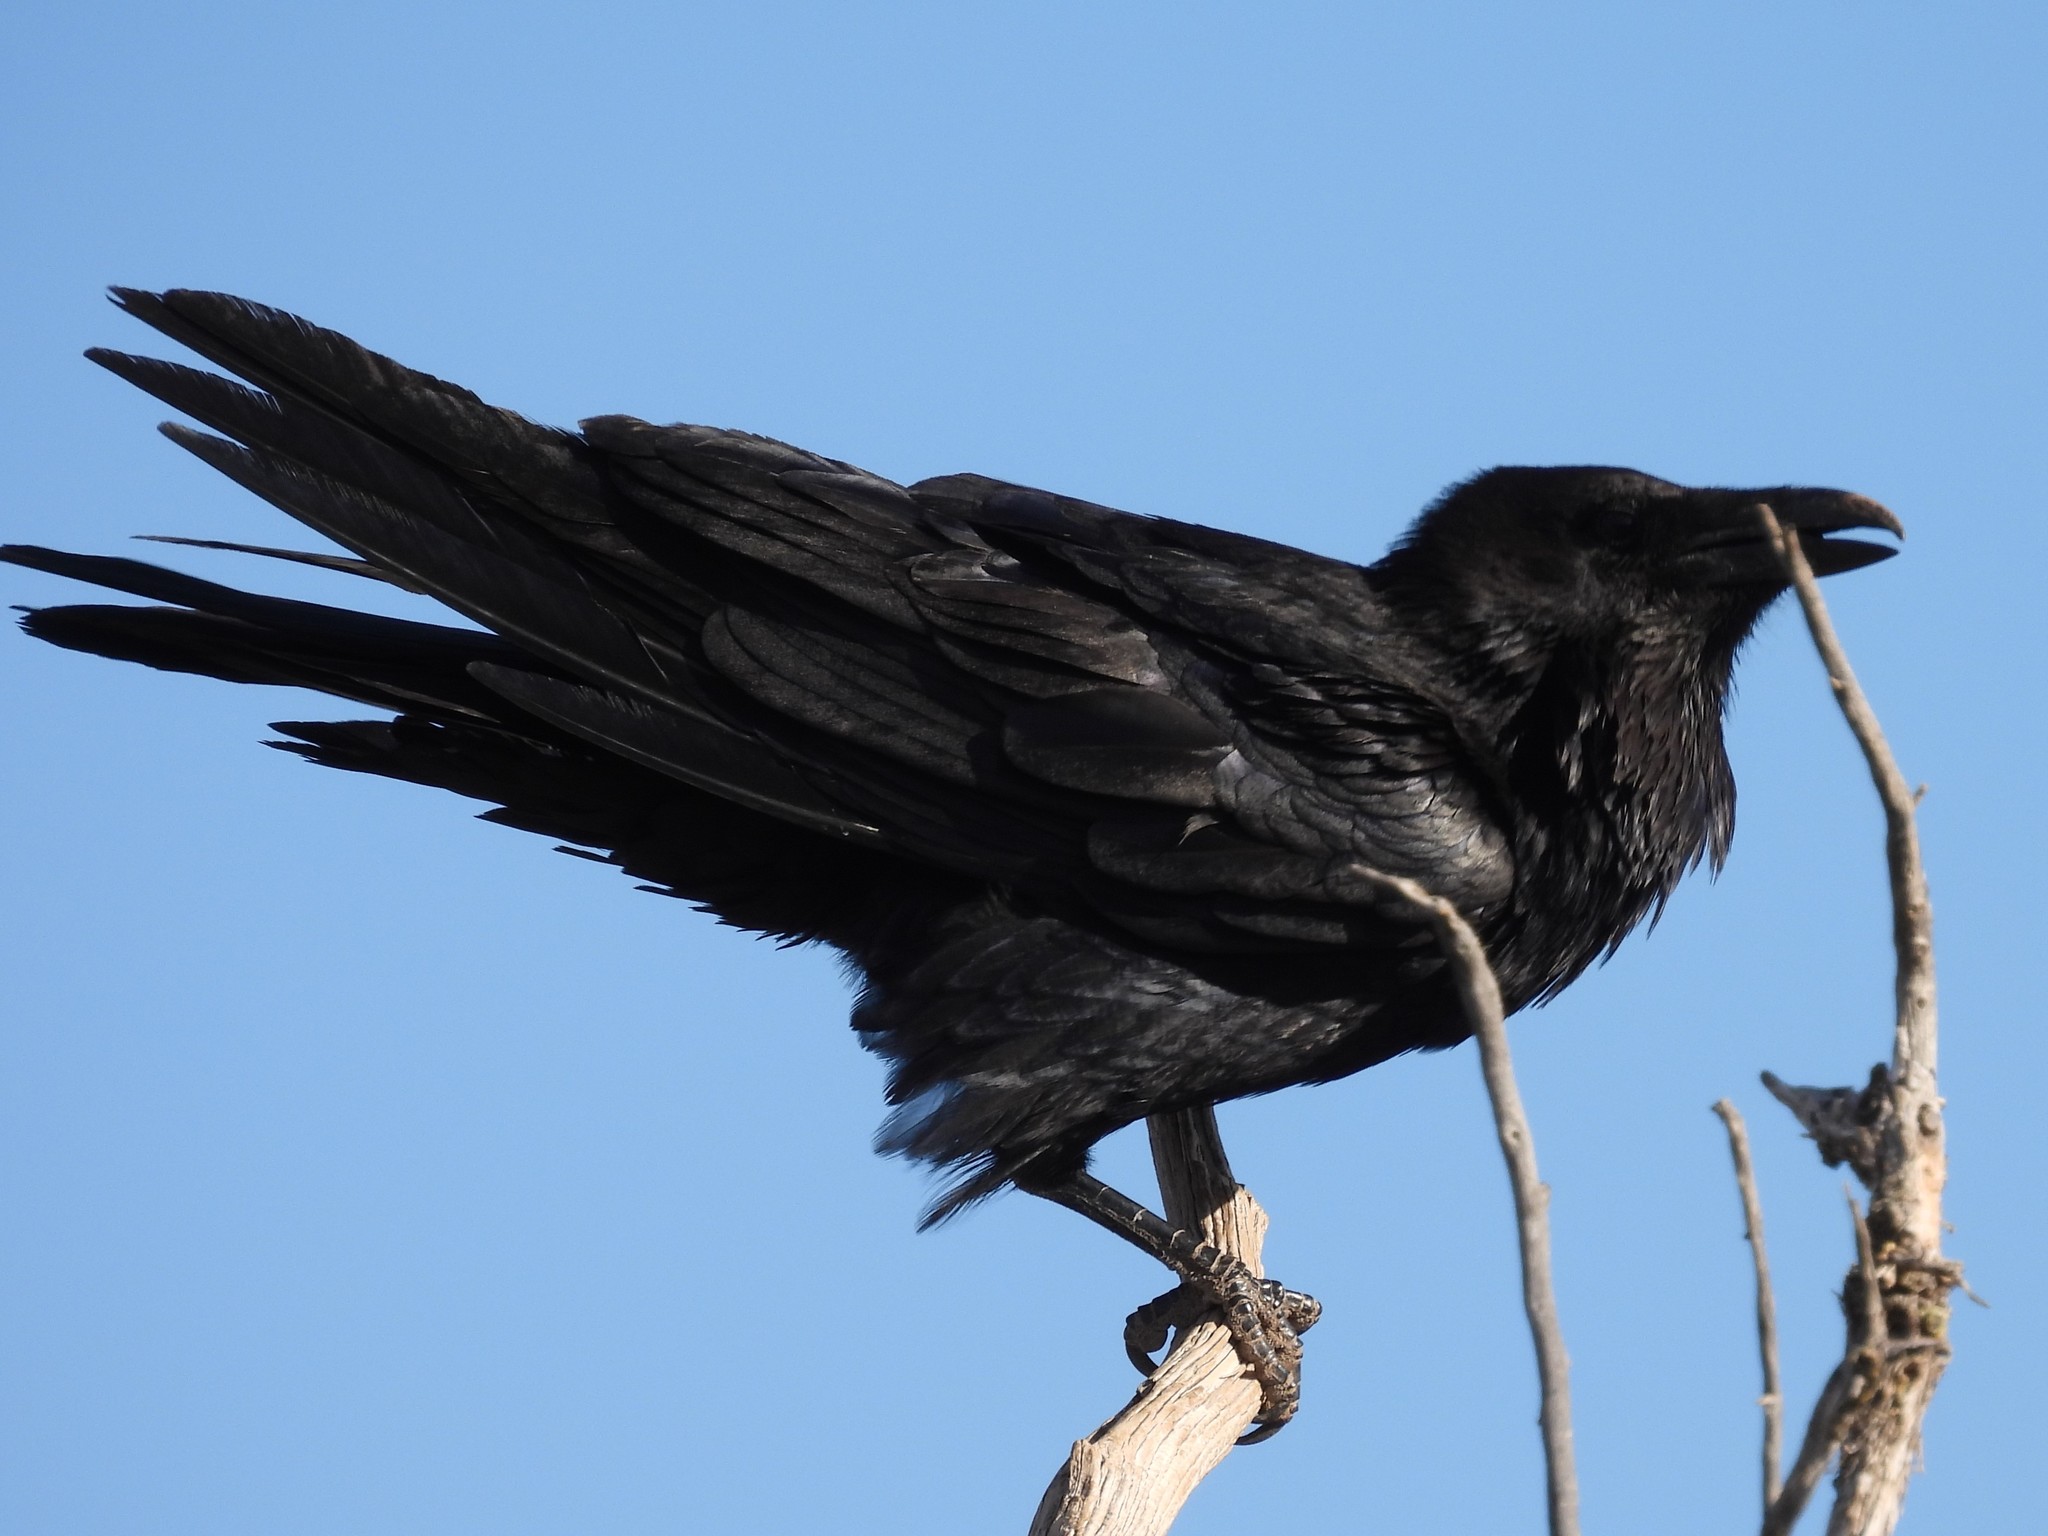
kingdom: Animalia
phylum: Chordata
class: Aves
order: Passeriformes
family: Corvidae
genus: Corvus
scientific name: Corvus corax
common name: Common raven
